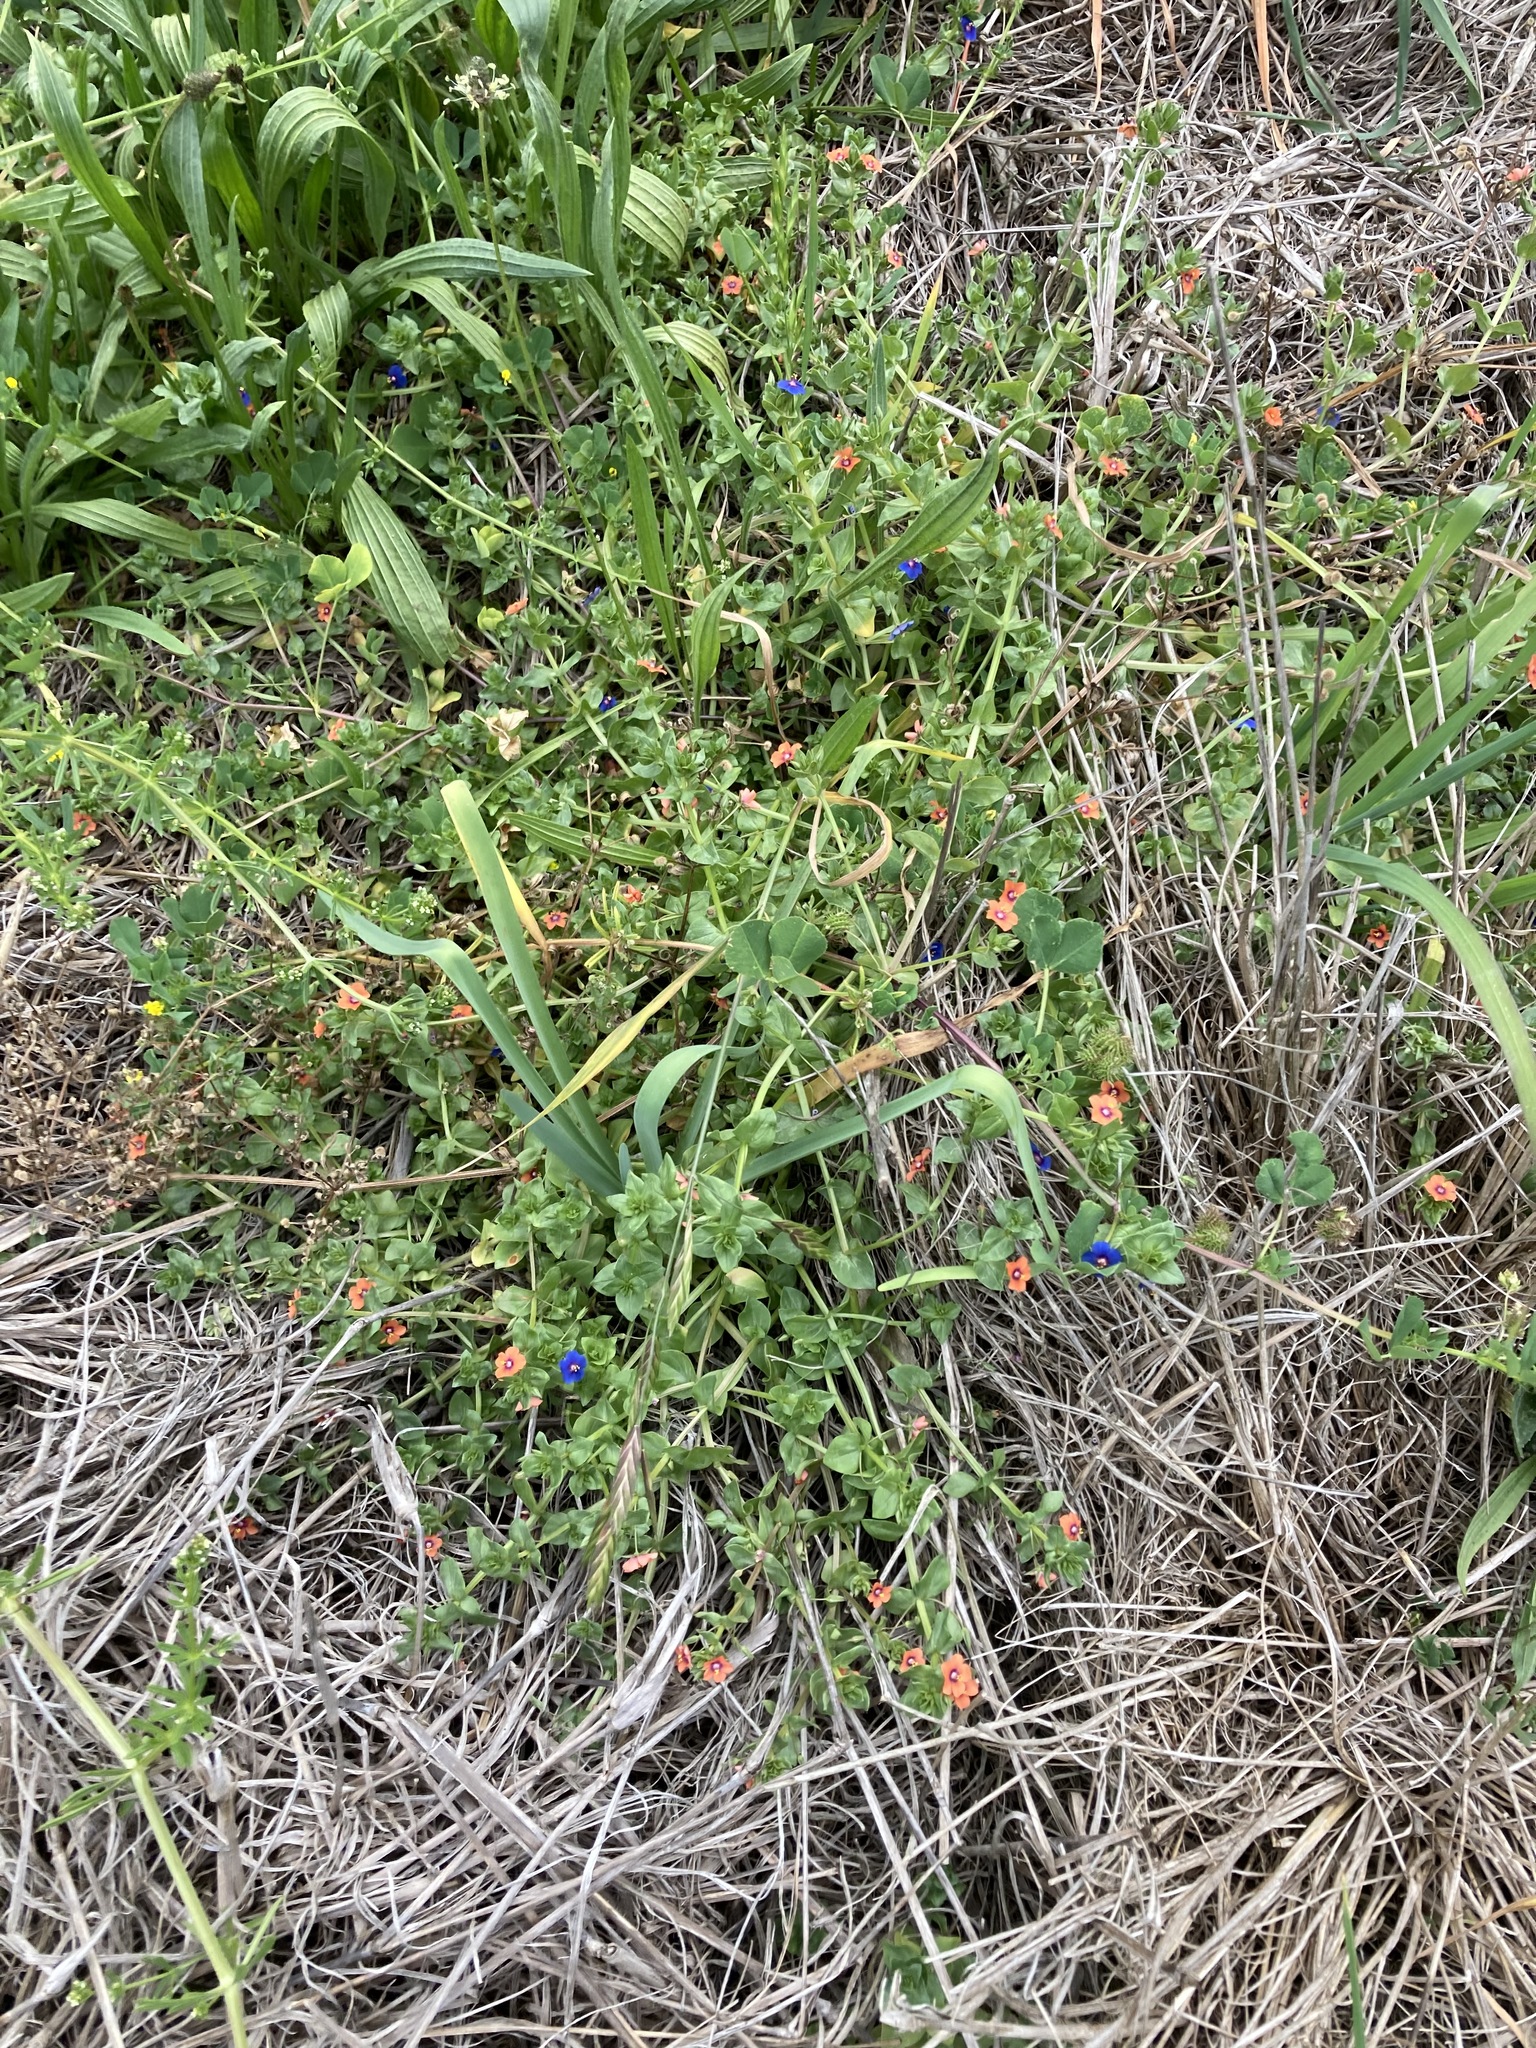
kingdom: Plantae
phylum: Tracheophyta
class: Magnoliopsida
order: Ericales
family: Primulaceae
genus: Lysimachia
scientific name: Lysimachia arvensis
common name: Scarlet pimpernel
